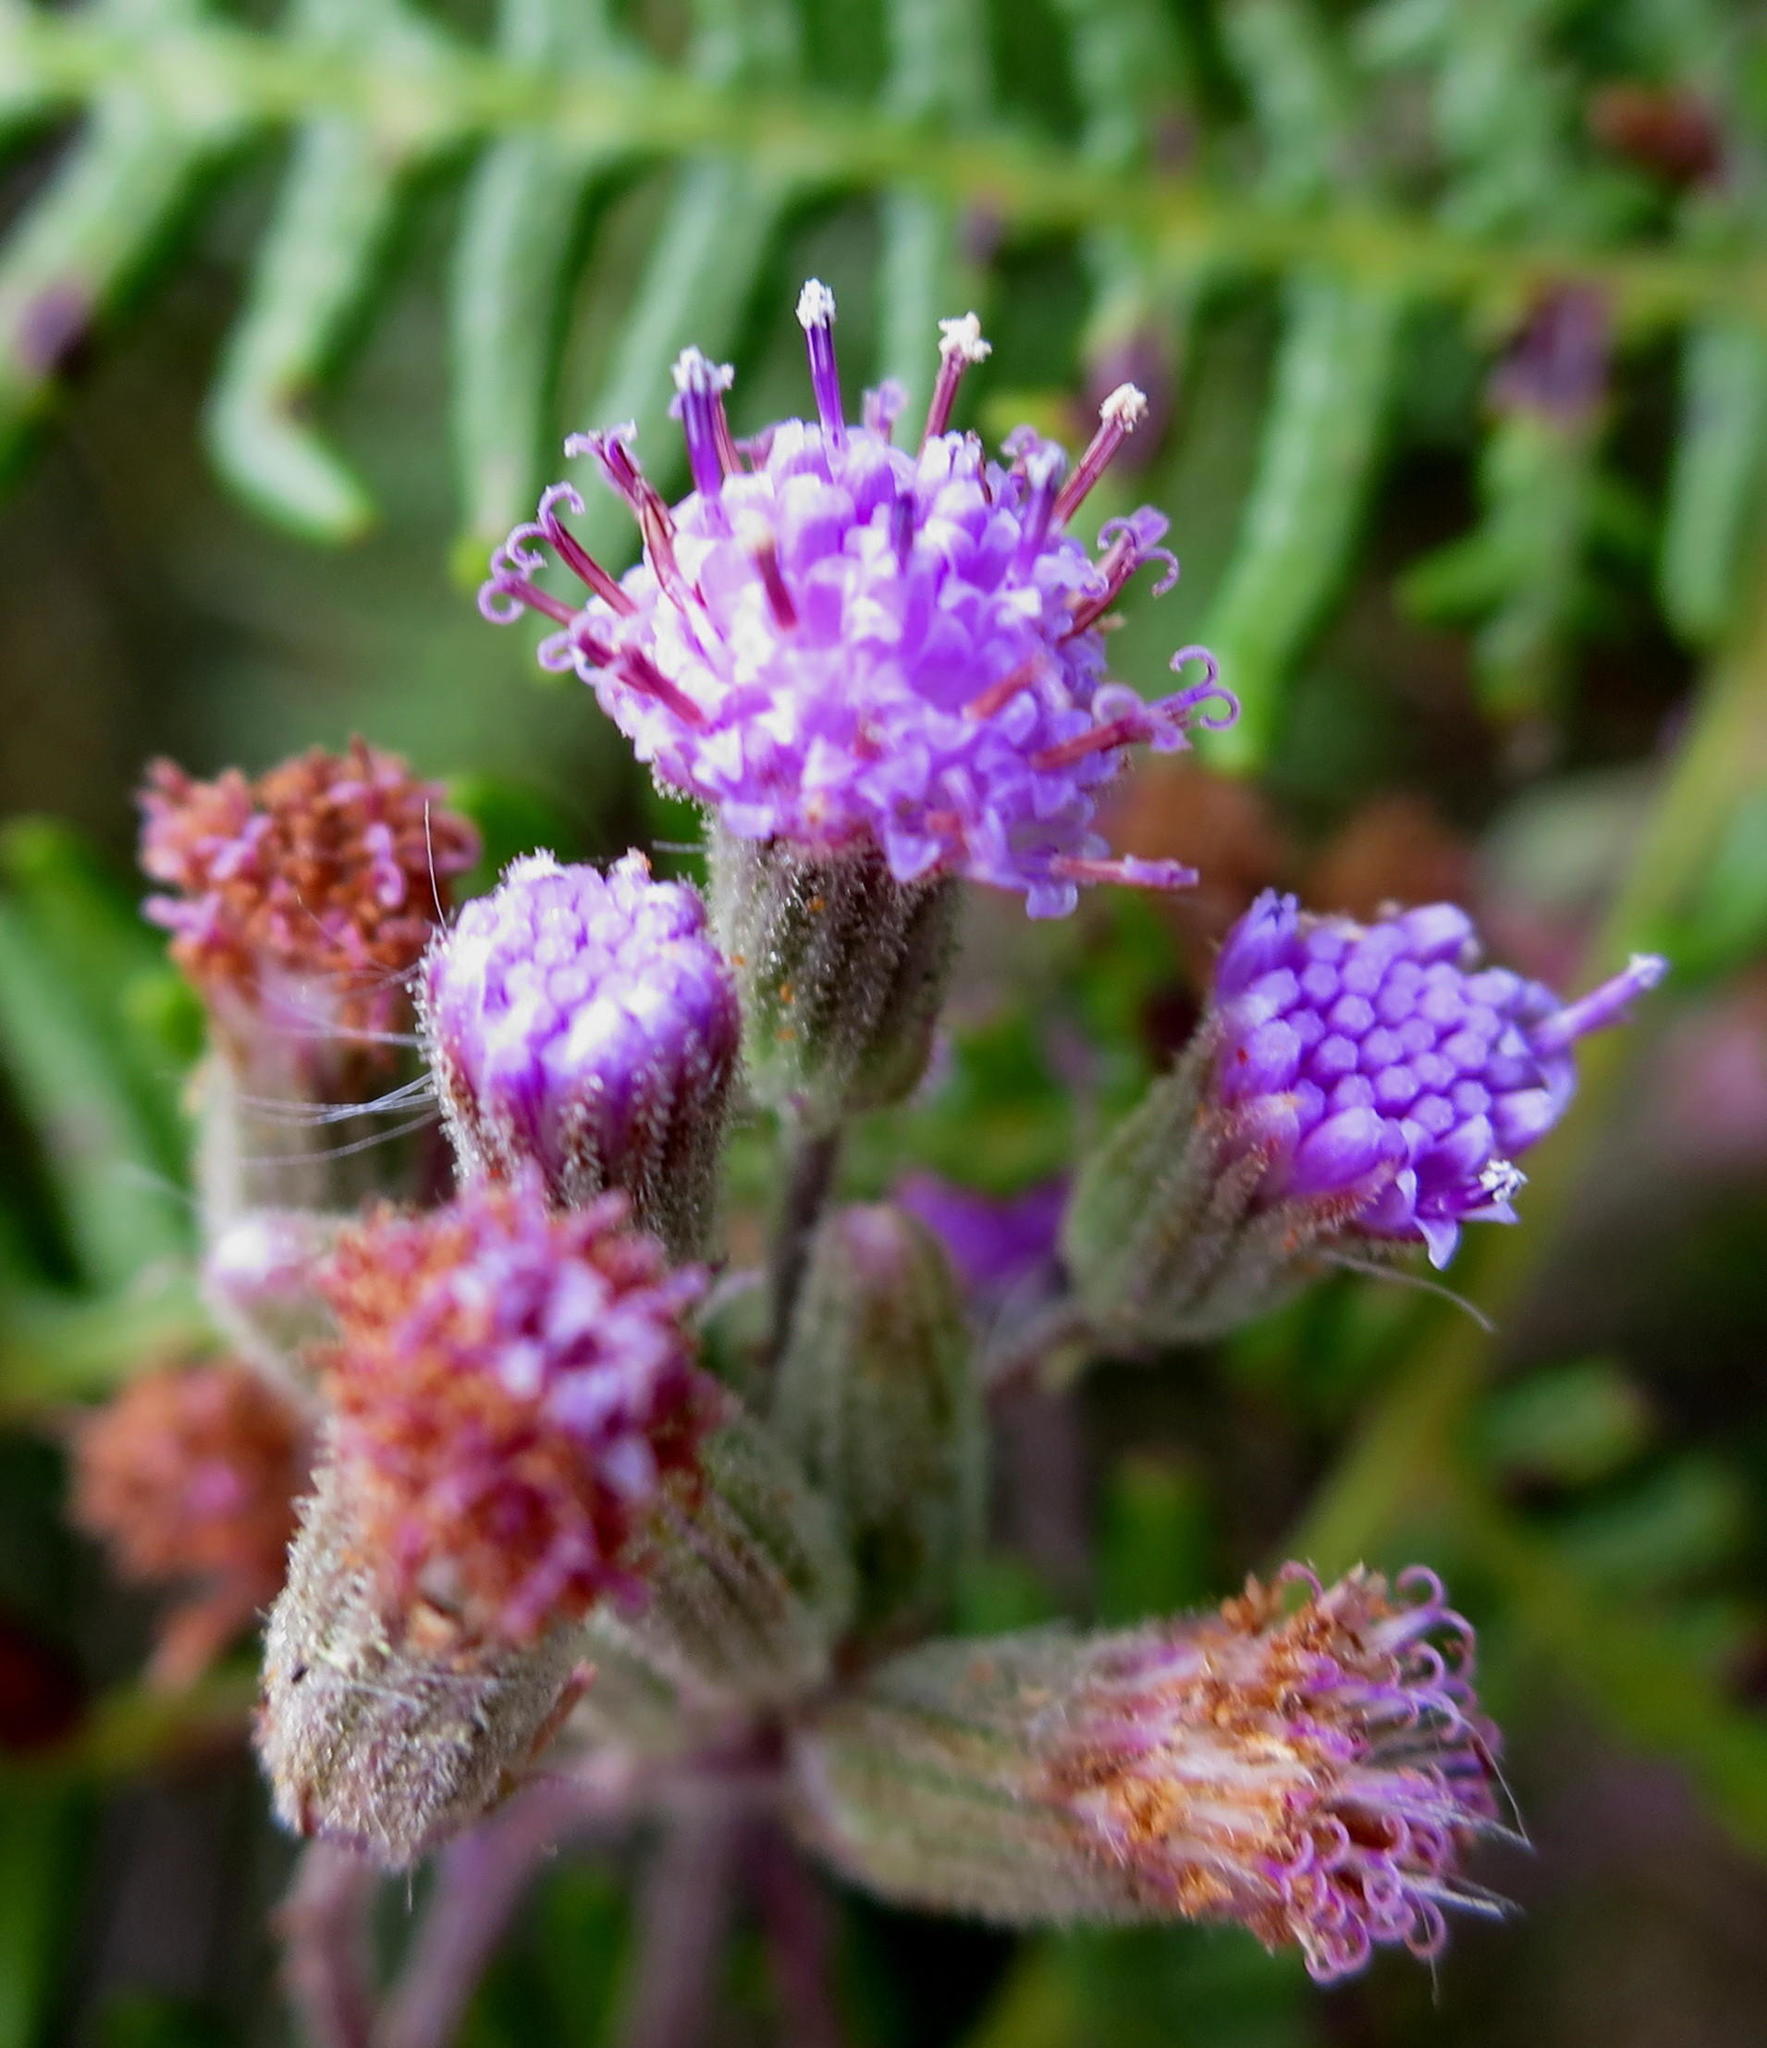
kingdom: Plantae
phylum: Tracheophyta
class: Magnoliopsida
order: Asterales
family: Asteraceae
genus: Senecio
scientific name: Senecio purpureus
